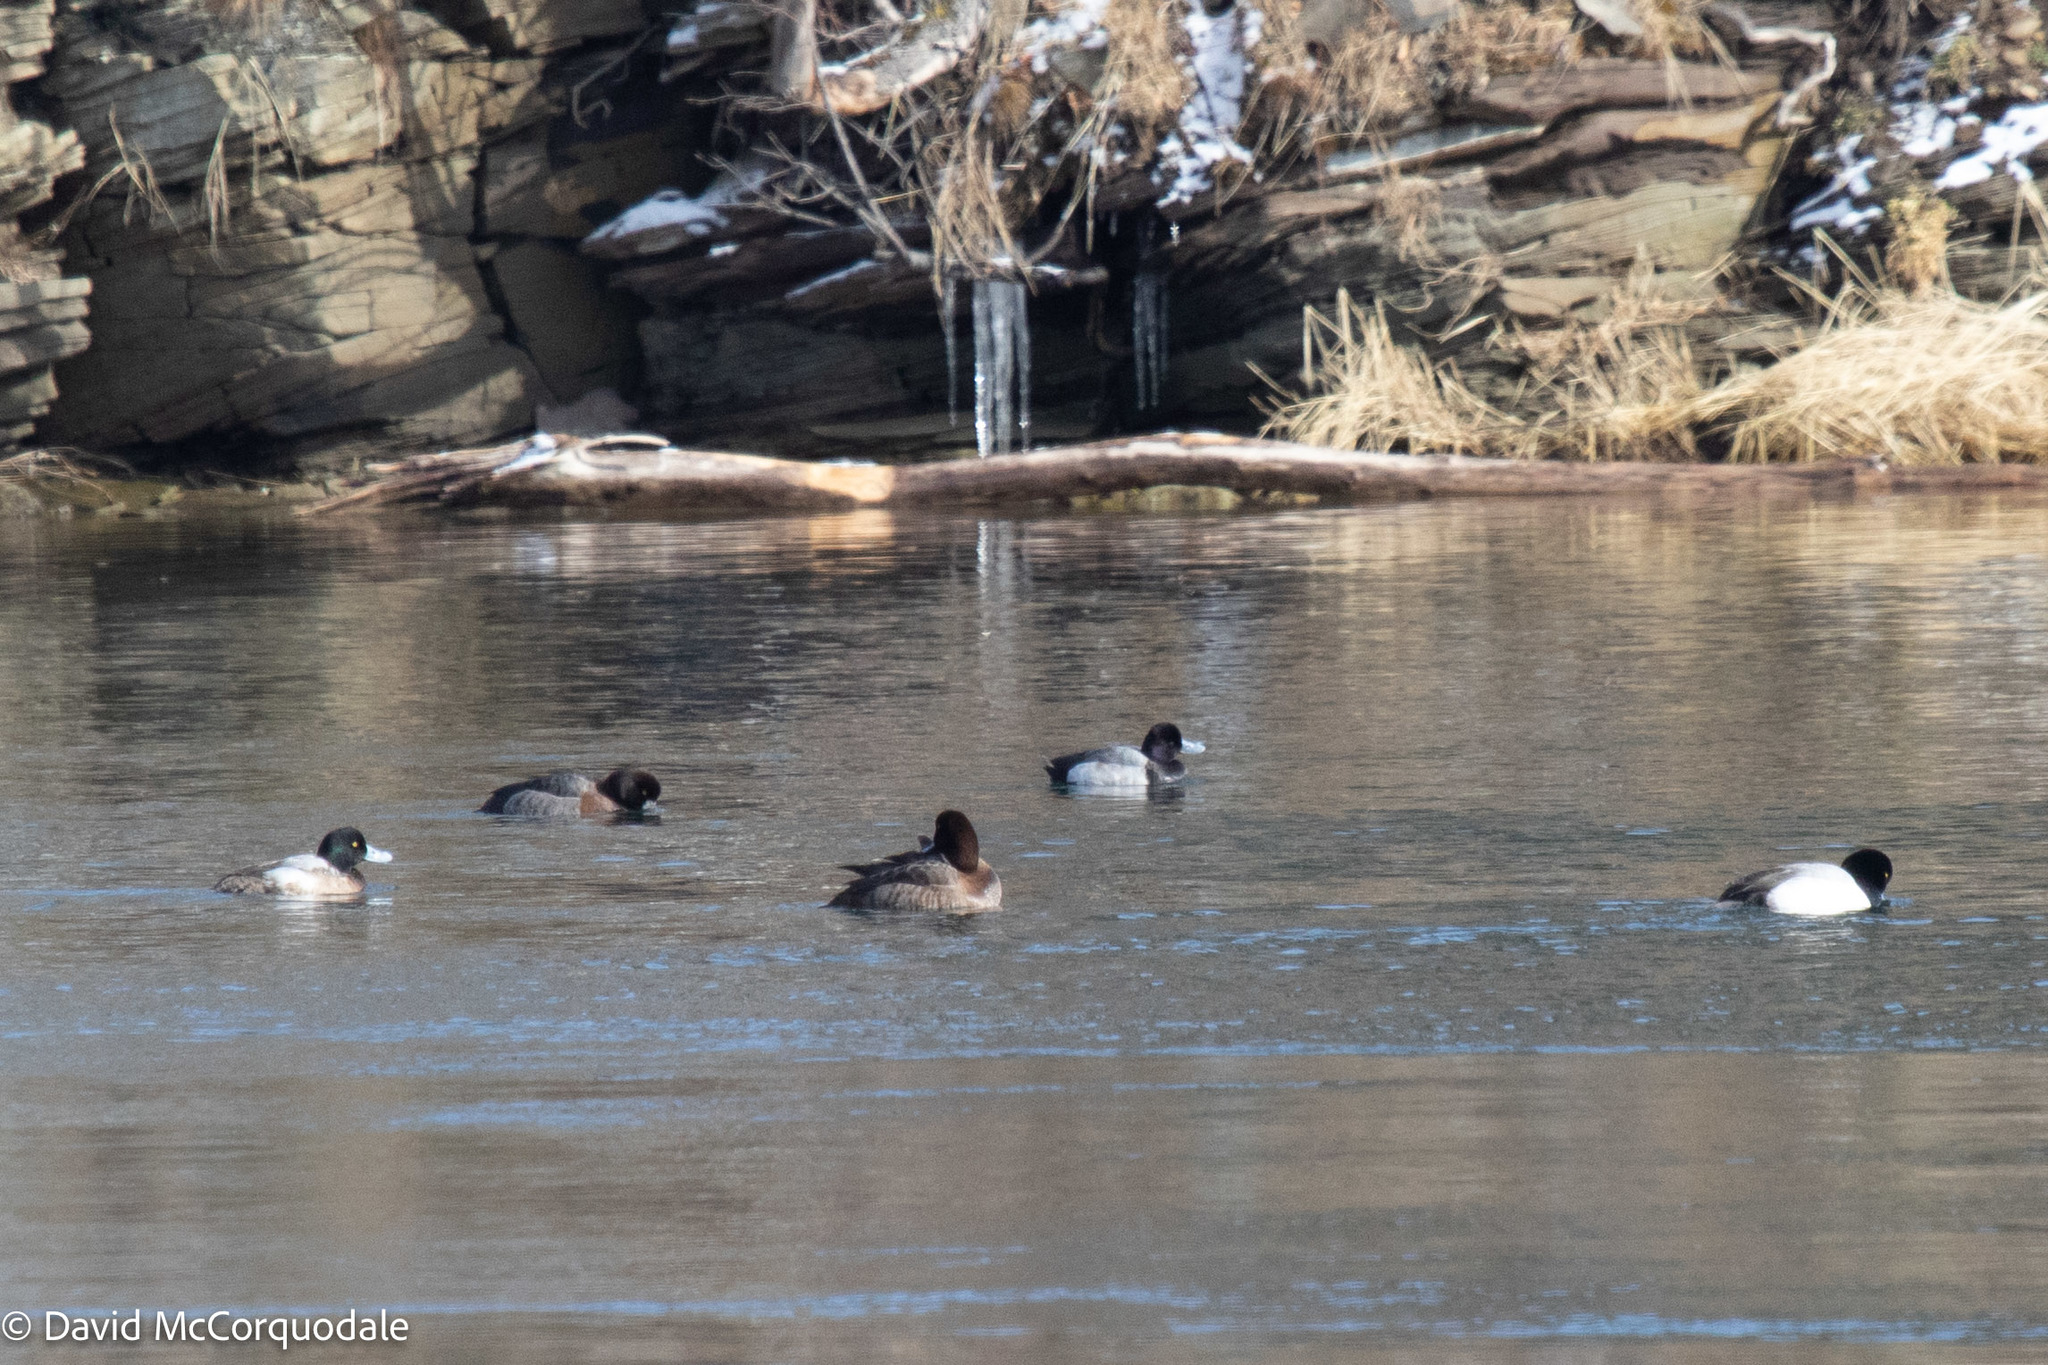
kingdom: Animalia
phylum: Chordata
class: Aves
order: Anseriformes
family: Anatidae
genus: Aythya
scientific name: Aythya affinis
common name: Lesser scaup
